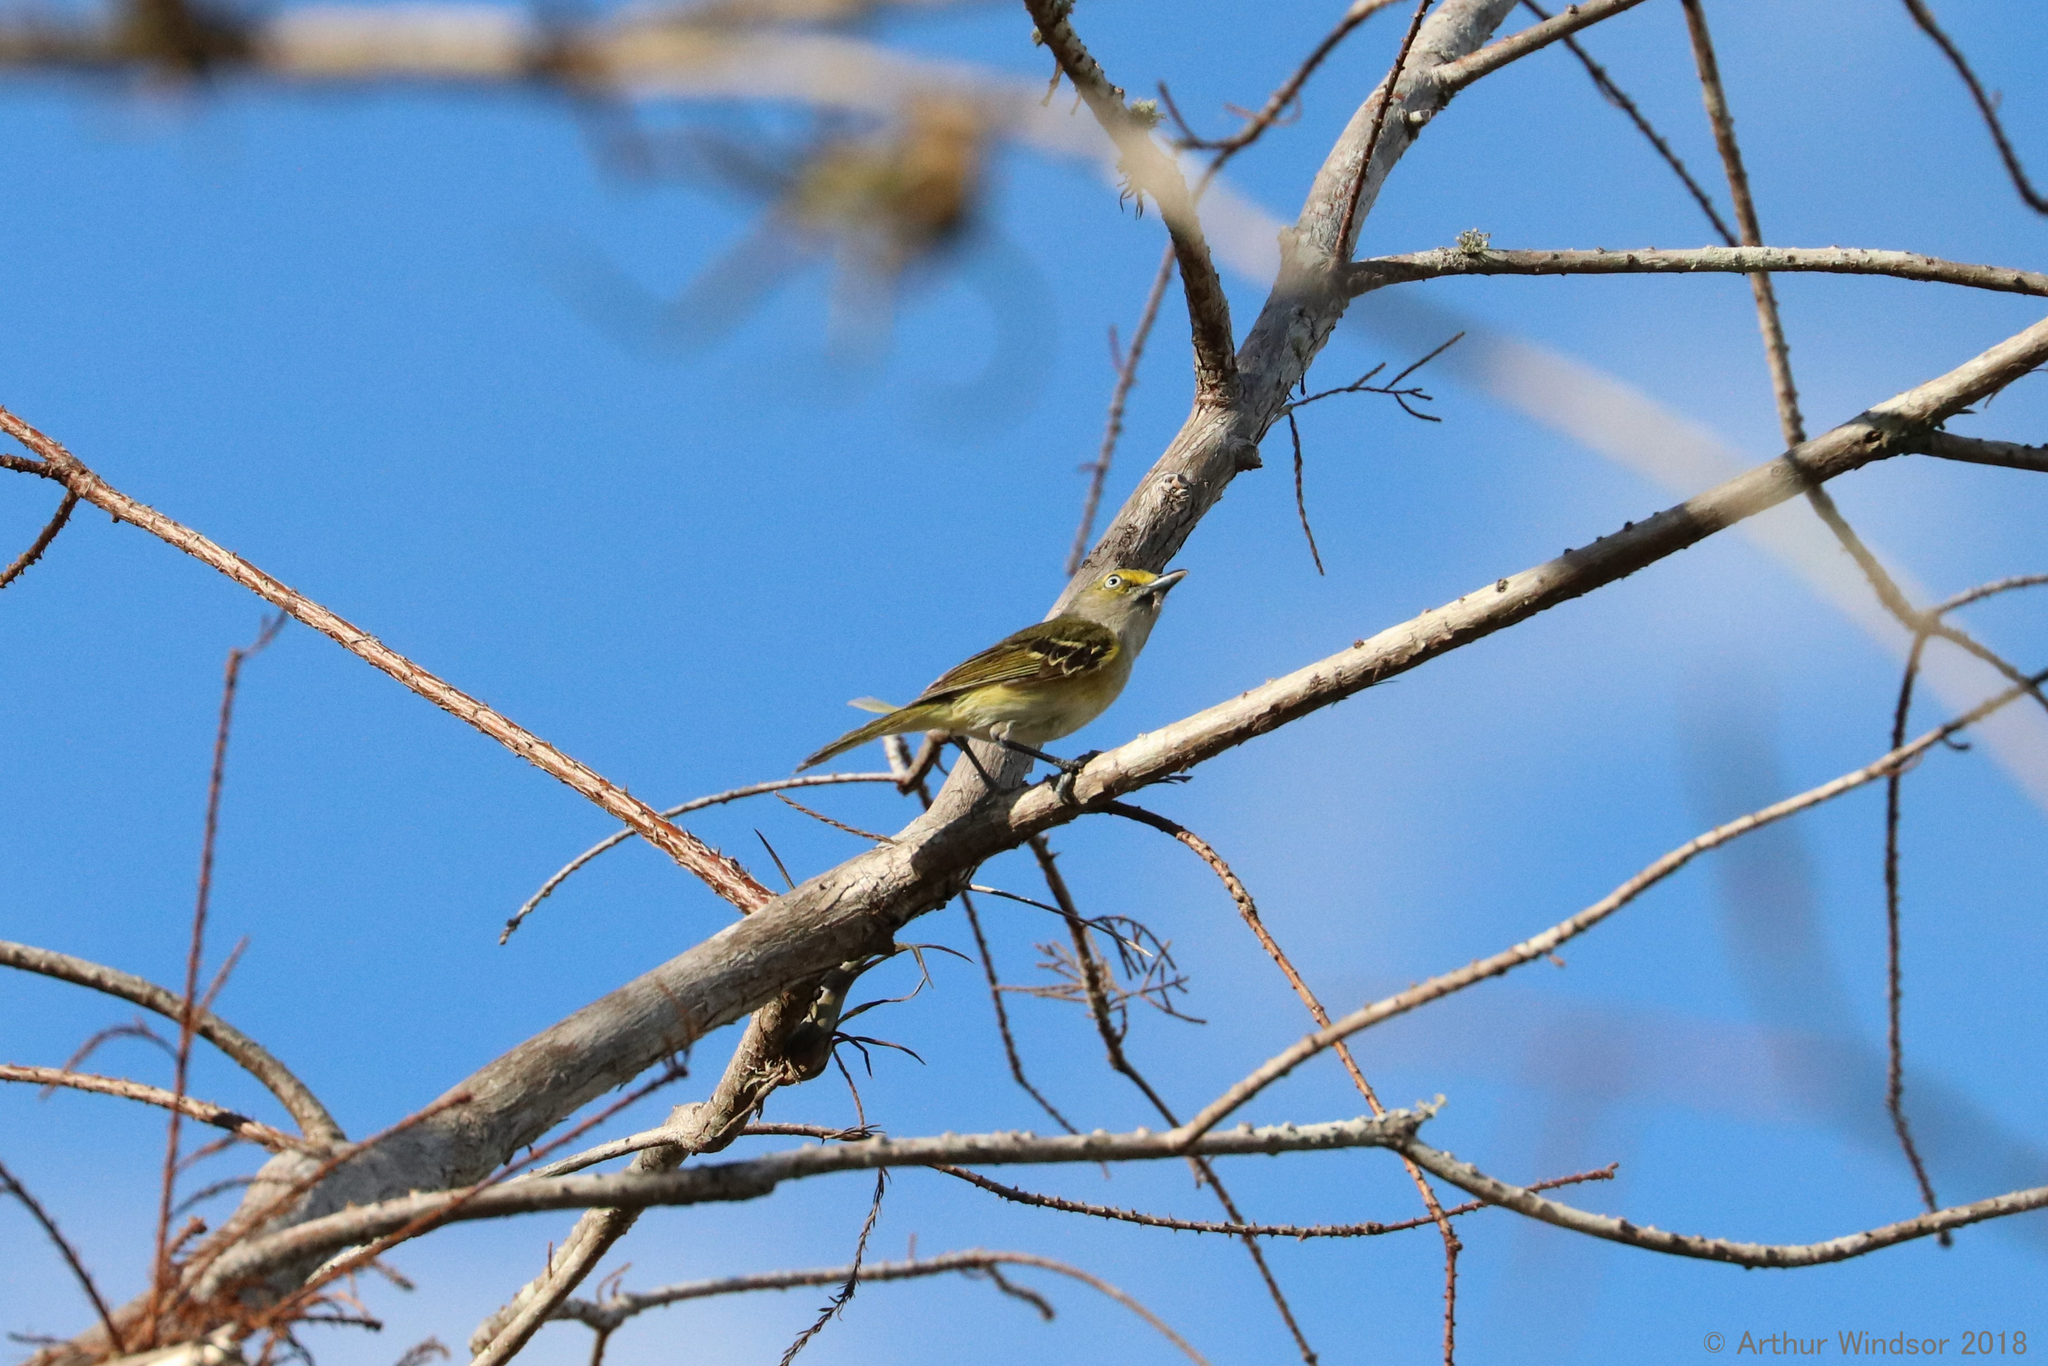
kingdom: Animalia
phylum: Chordata
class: Aves
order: Passeriformes
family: Vireonidae
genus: Vireo
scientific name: Vireo griseus
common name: White-eyed vireo
